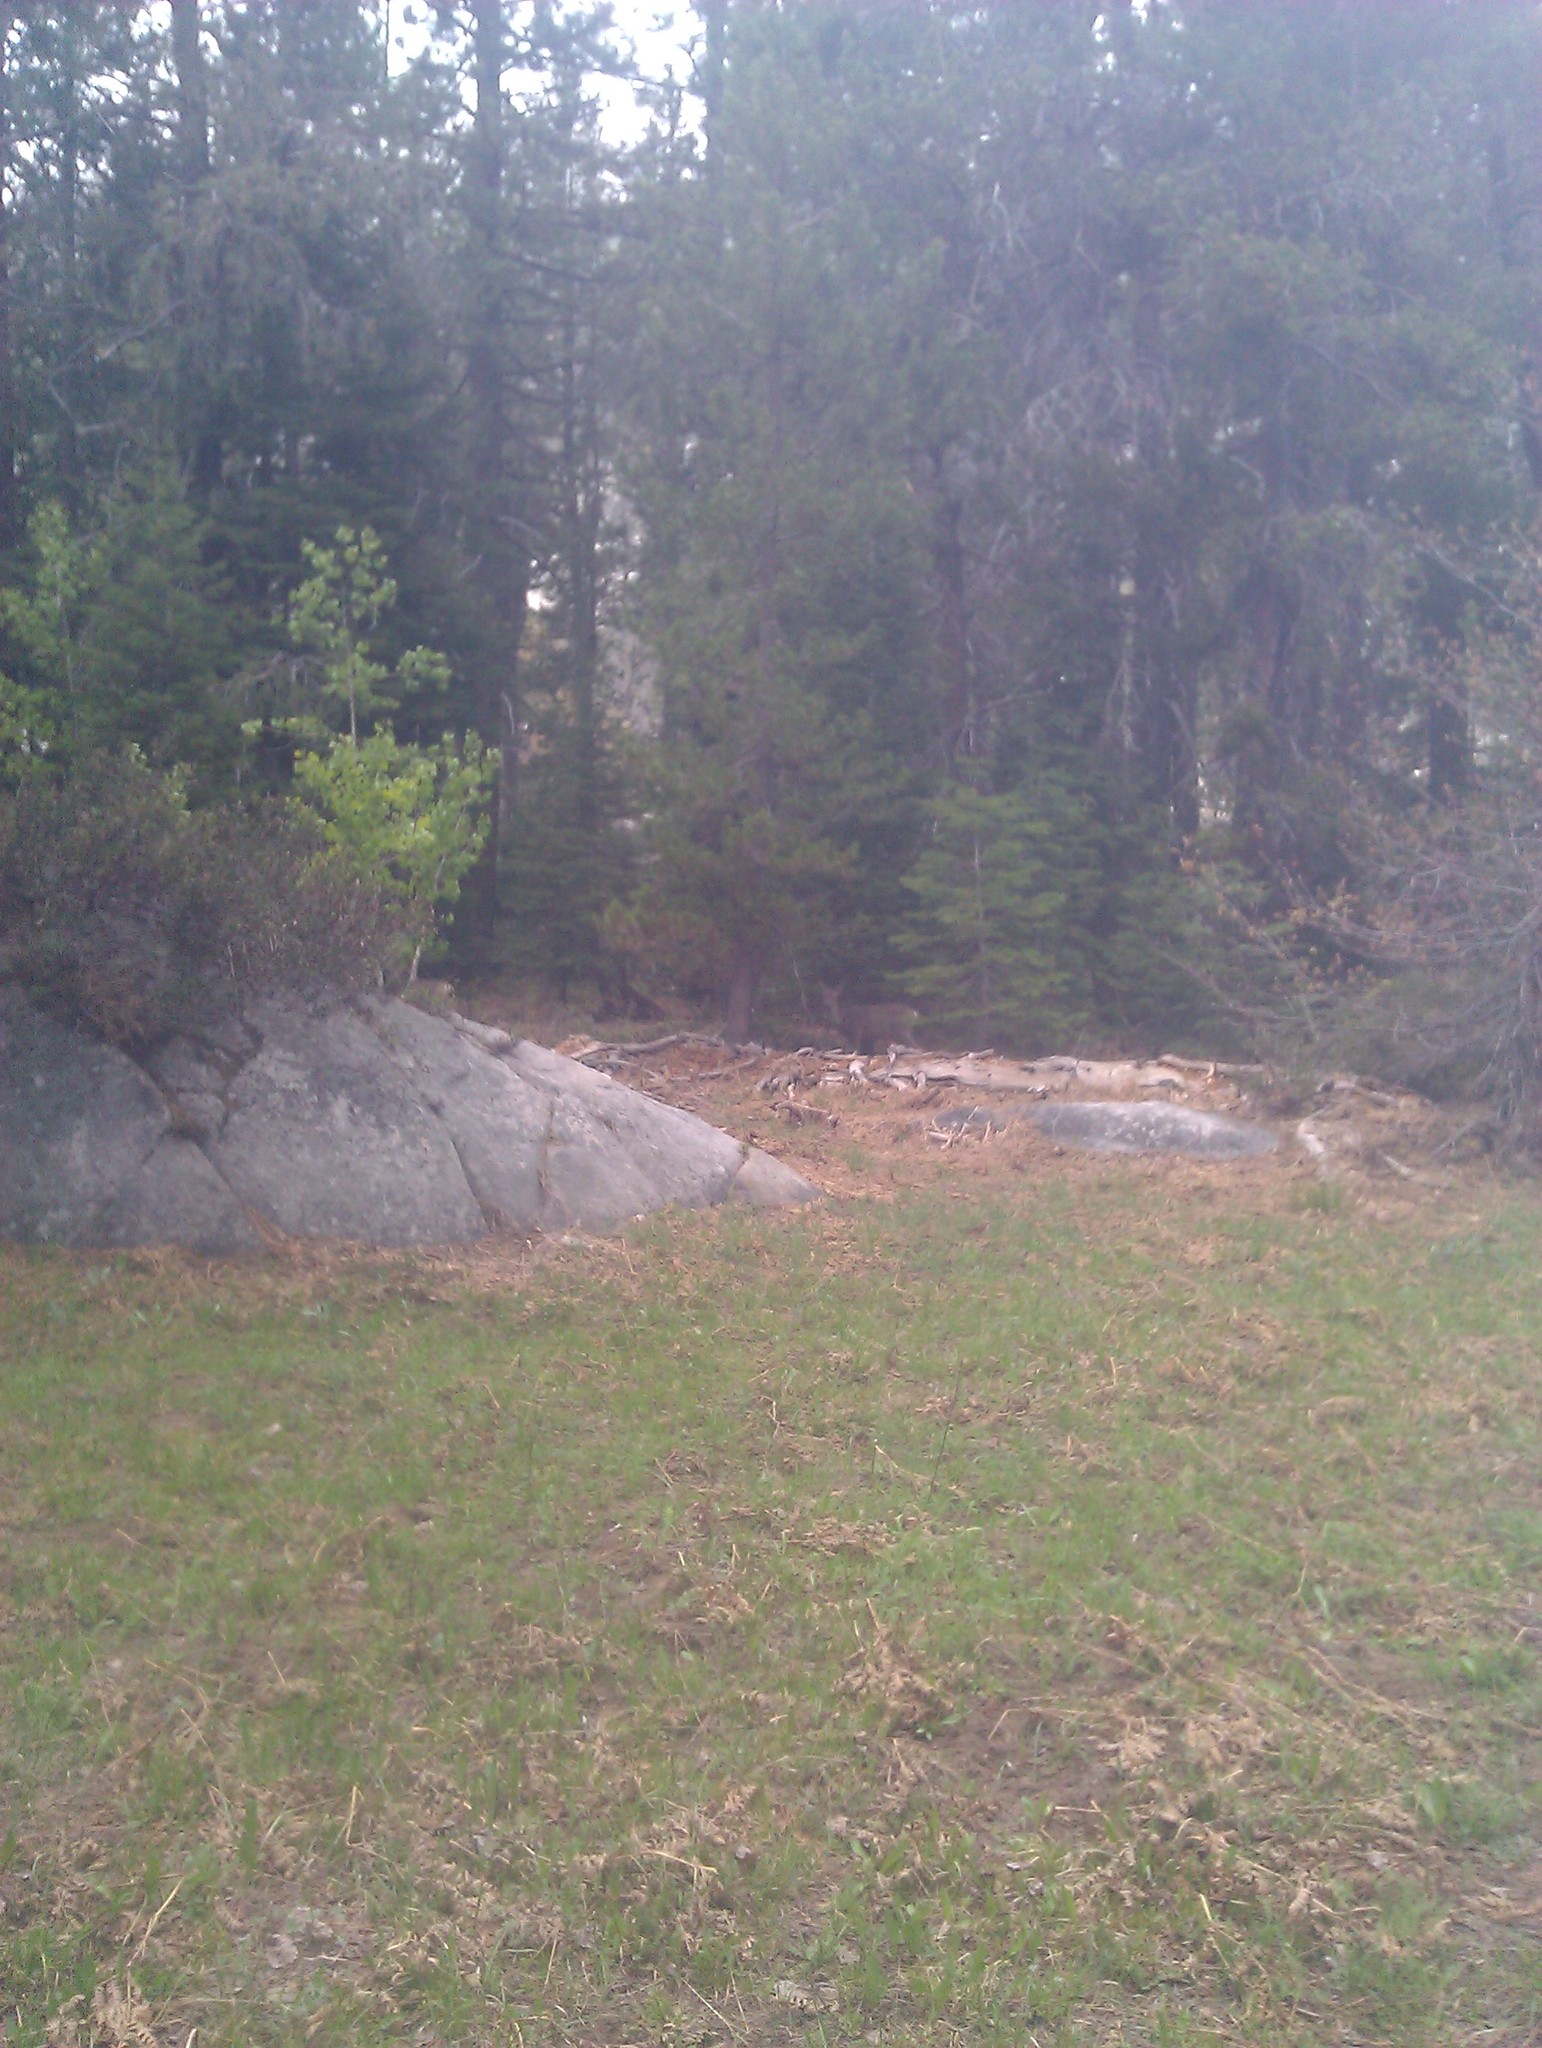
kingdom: Animalia
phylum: Chordata
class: Mammalia
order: Artiodactyla
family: Cervidae
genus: Odocoileus
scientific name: Odocoileus hemionus
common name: Mule deer
